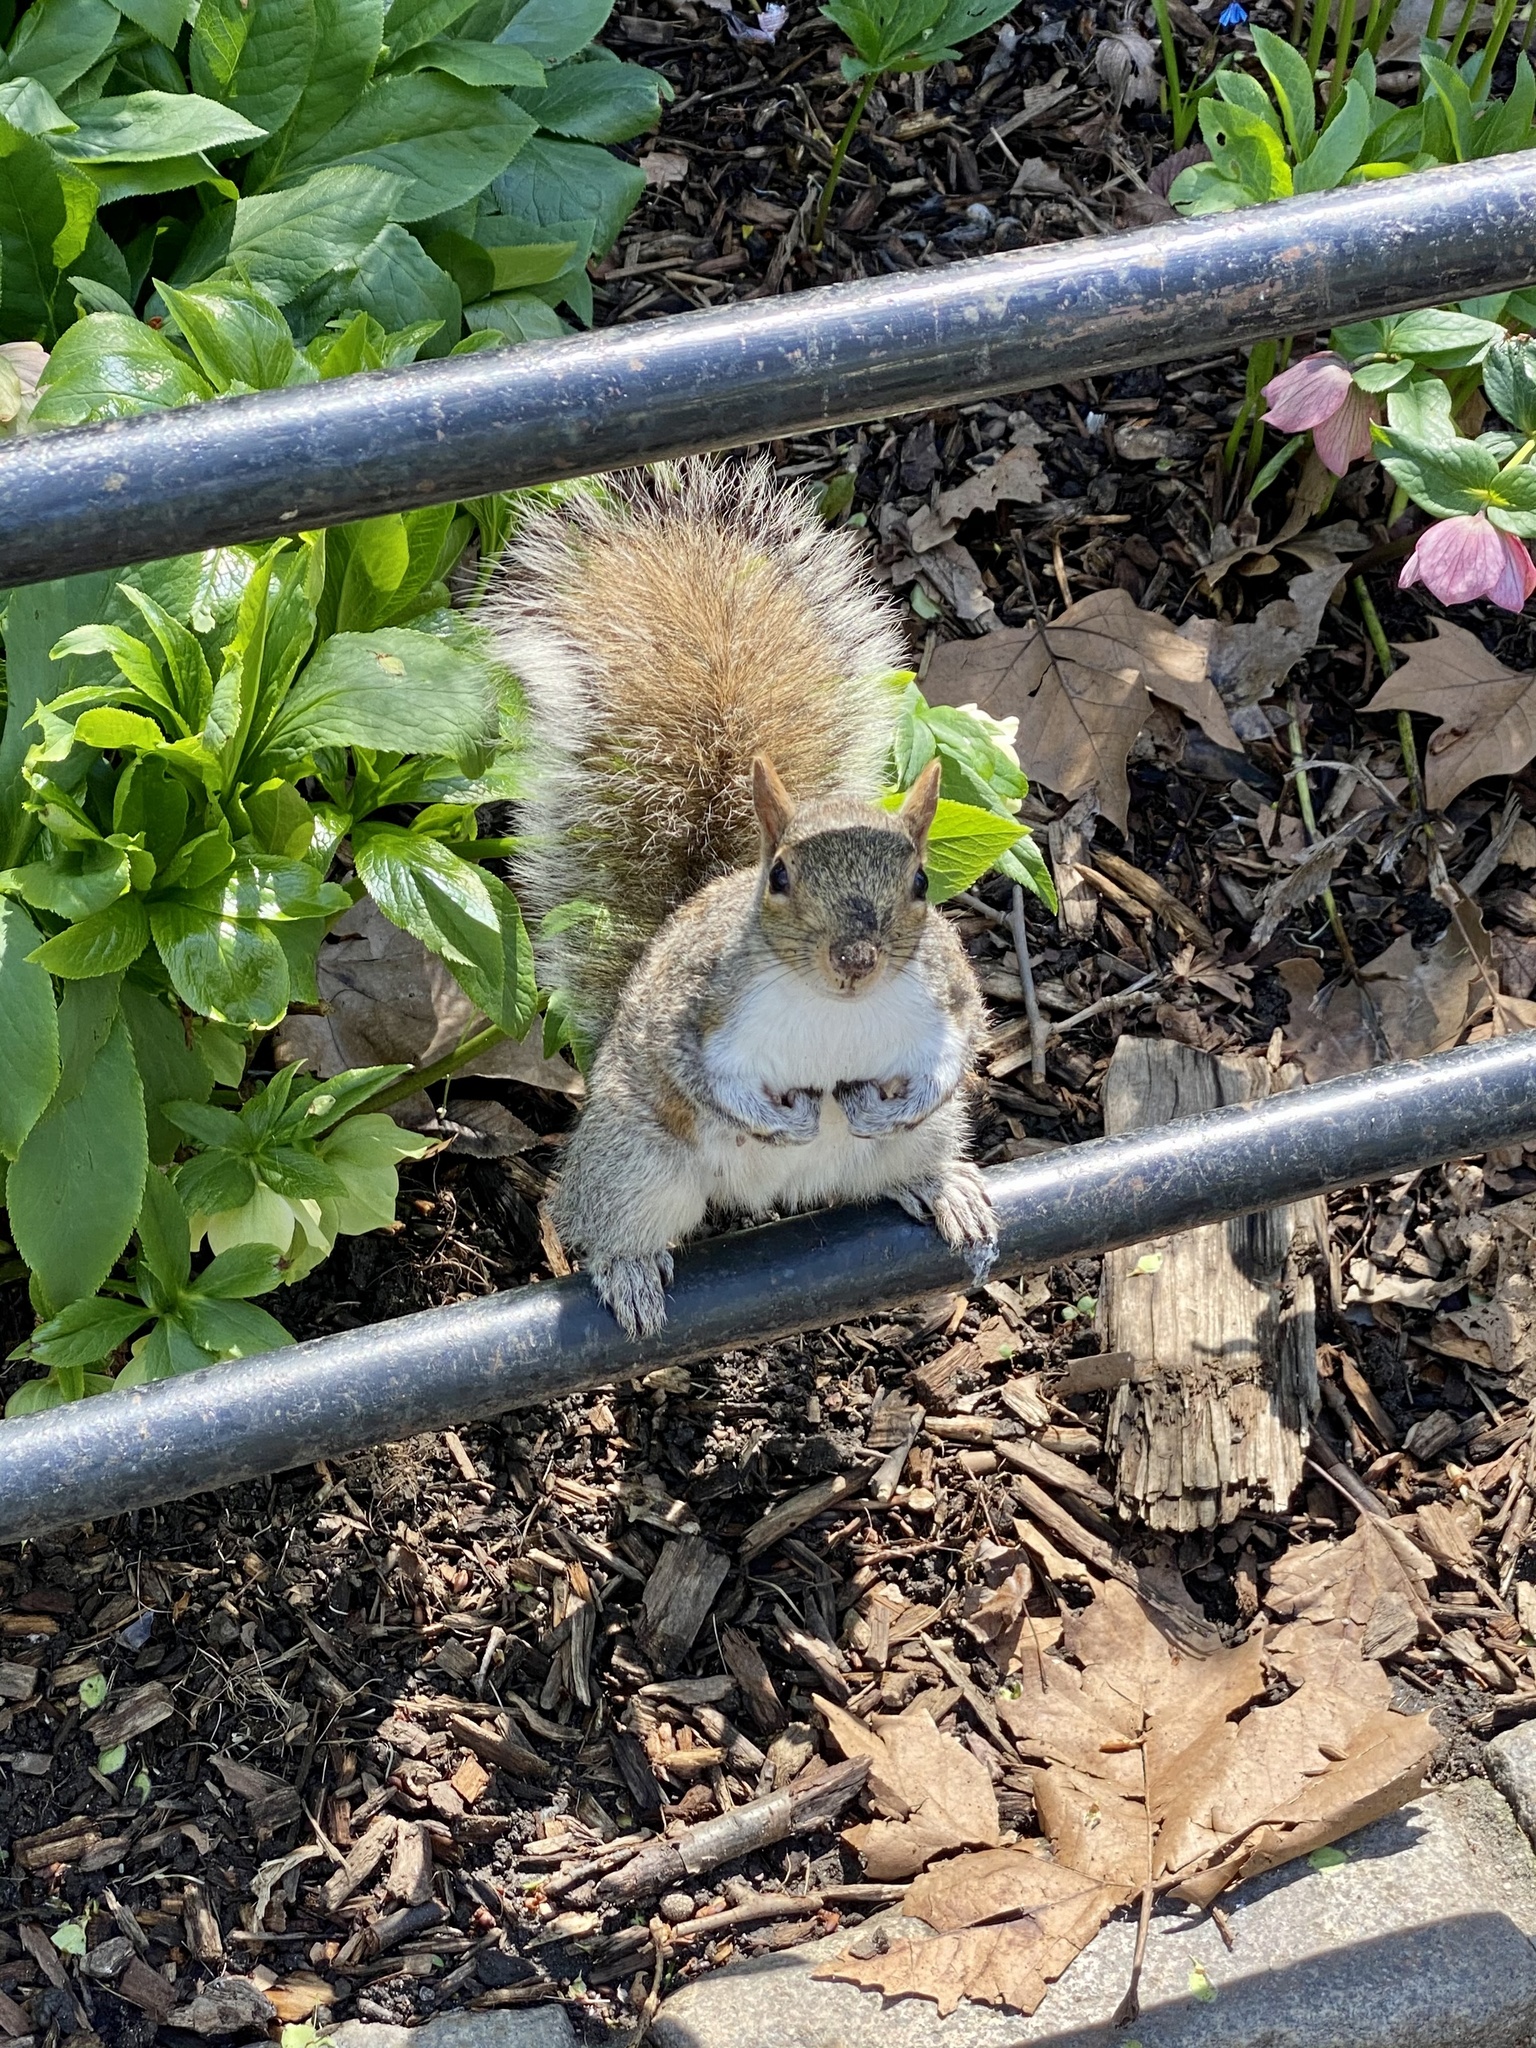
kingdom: Animalia
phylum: Chordata
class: Mammalia
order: Rodentia
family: Sciuridae
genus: Sciurus
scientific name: Sciurus carolinensis
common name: Eastern gray squirrel
